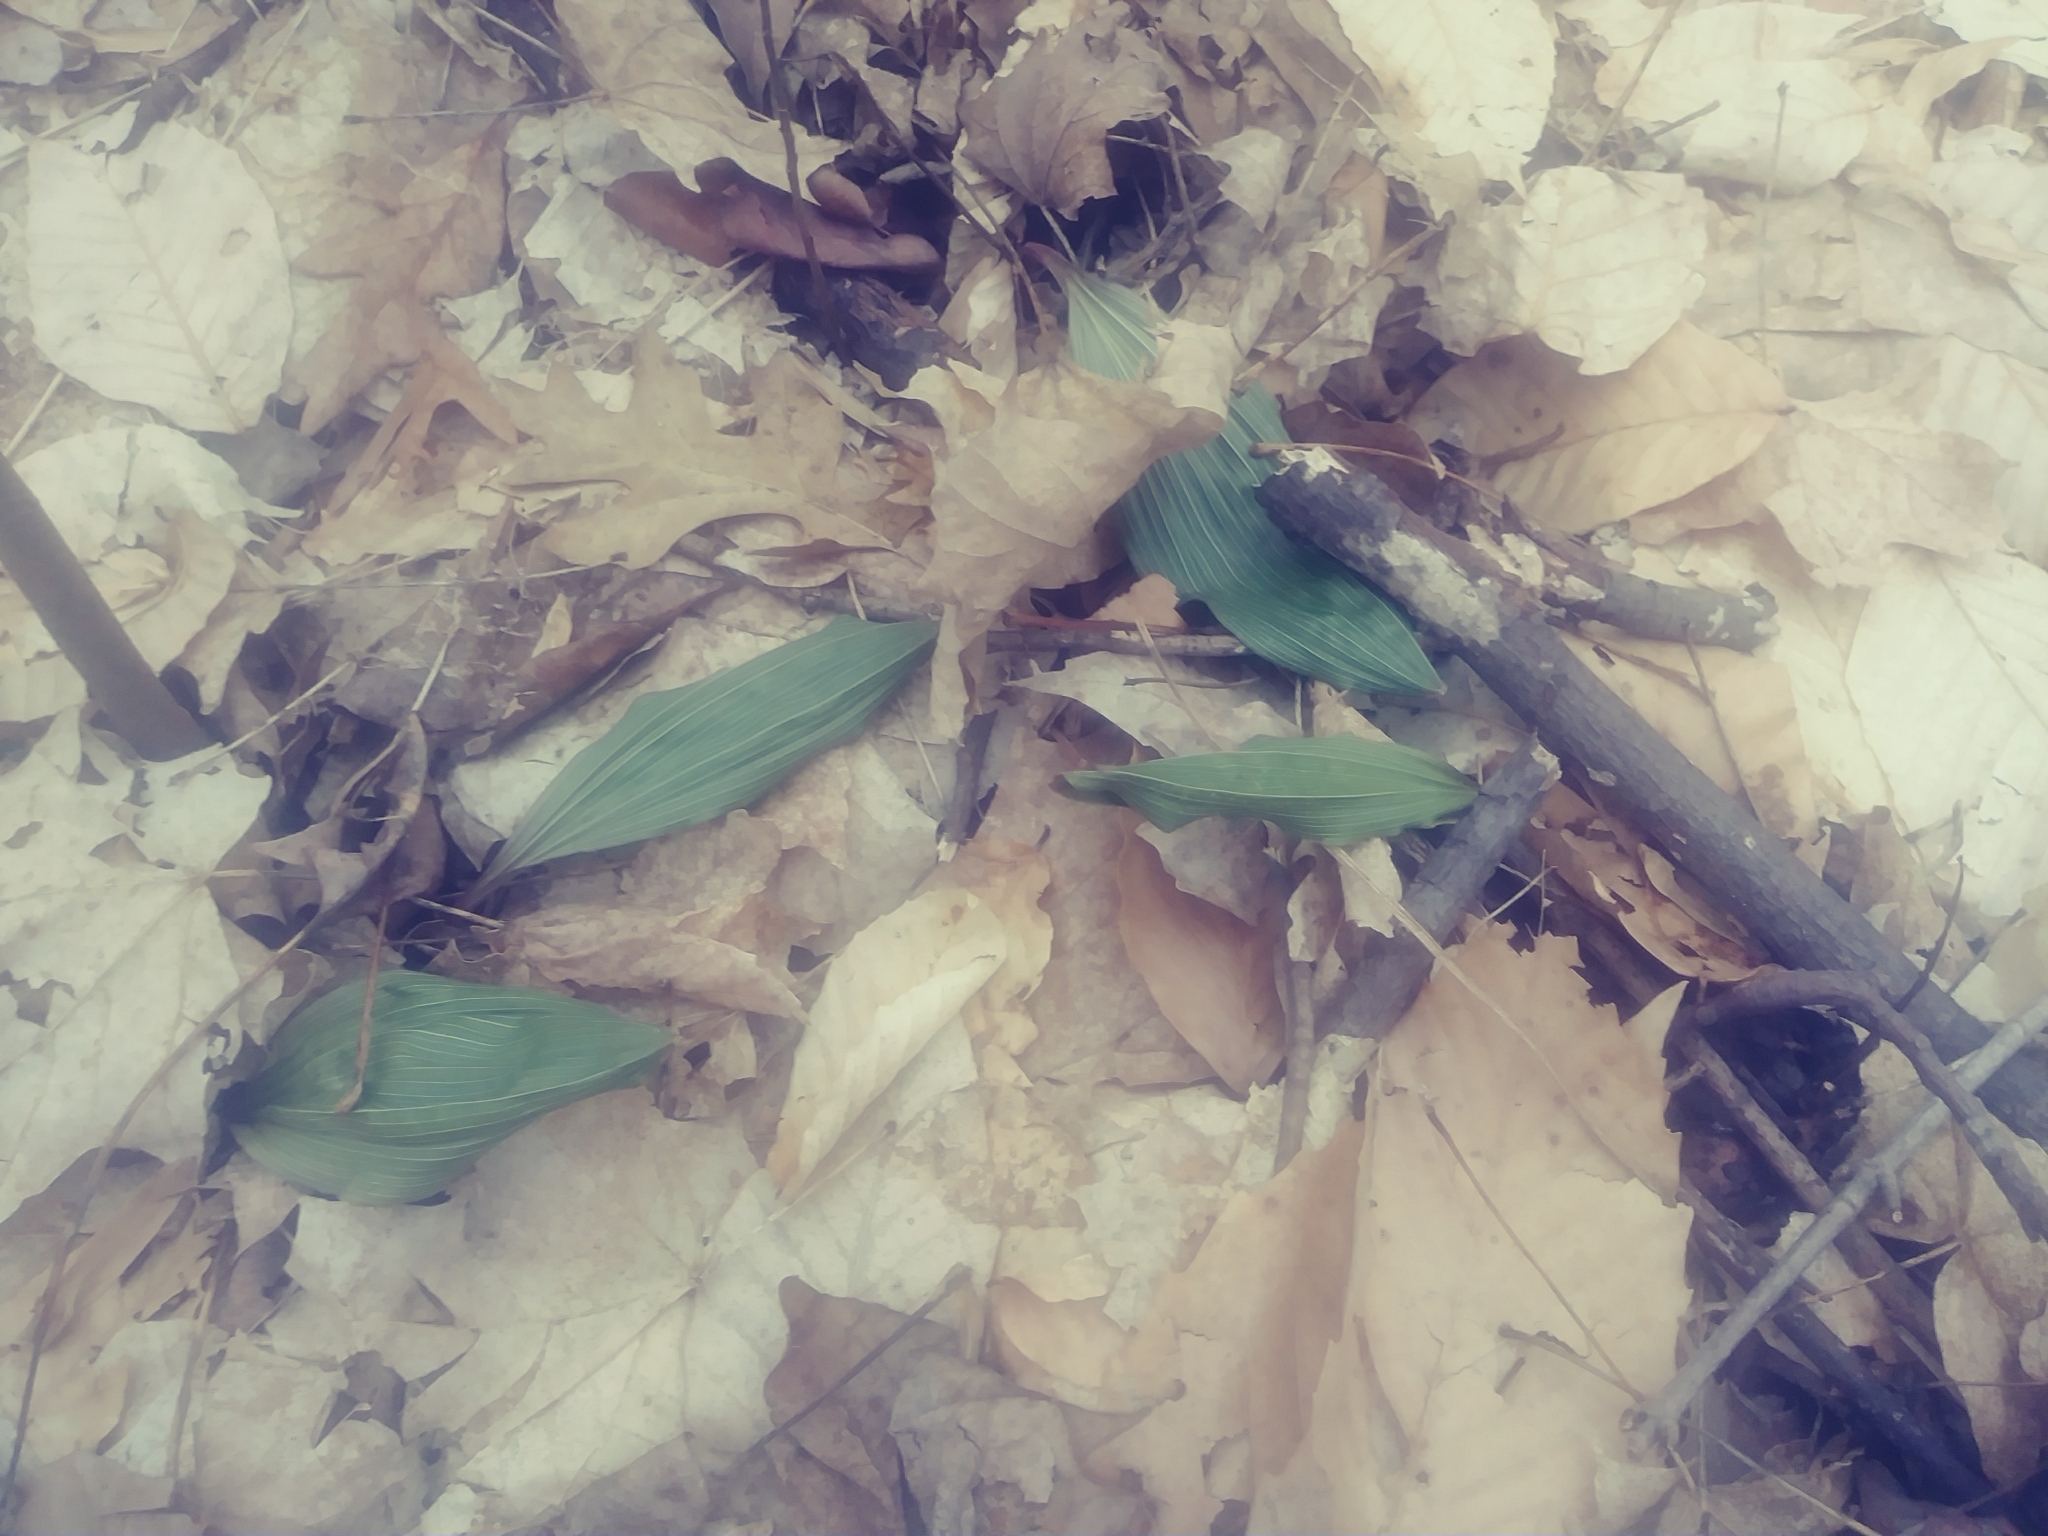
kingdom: Plantae
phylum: Tracheophyta
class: Liliopsida
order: Asparagales
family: Orchidaceae
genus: Aplectrum
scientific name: Aplectrum hyemale
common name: Adam-and-eve
